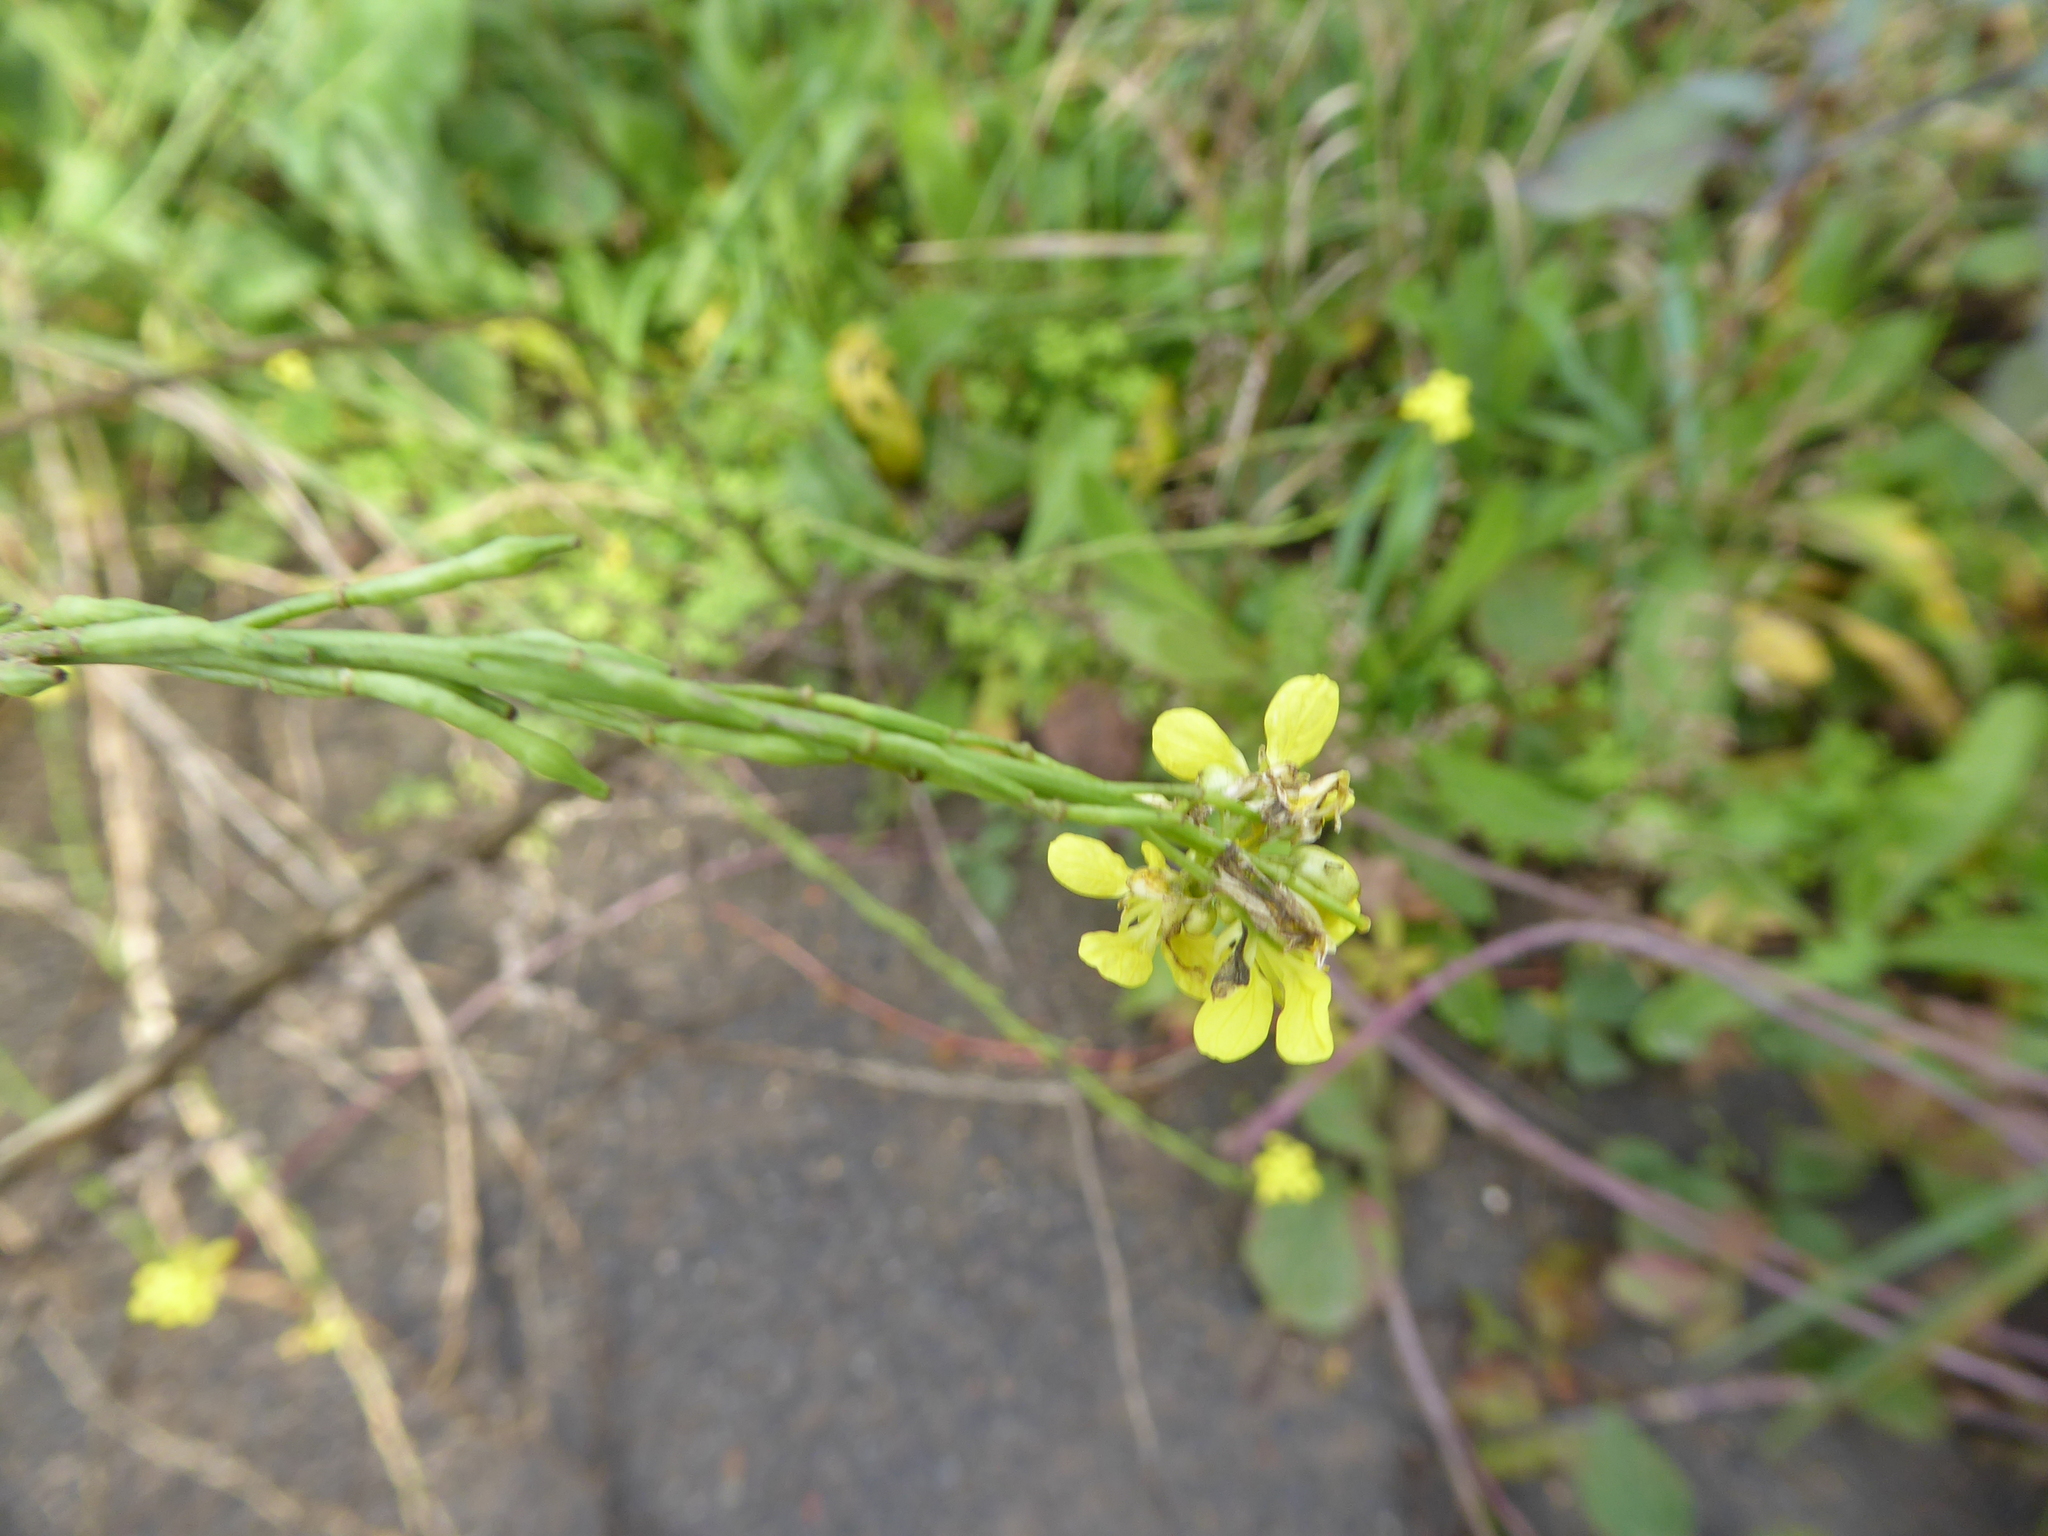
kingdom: Plantae
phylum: Tracheophyta
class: Magnoliopsida
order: Brassicales
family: Brassicaceae
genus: Hirschfeldia
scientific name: Hirschfeldia incana
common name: Hoary mustard
